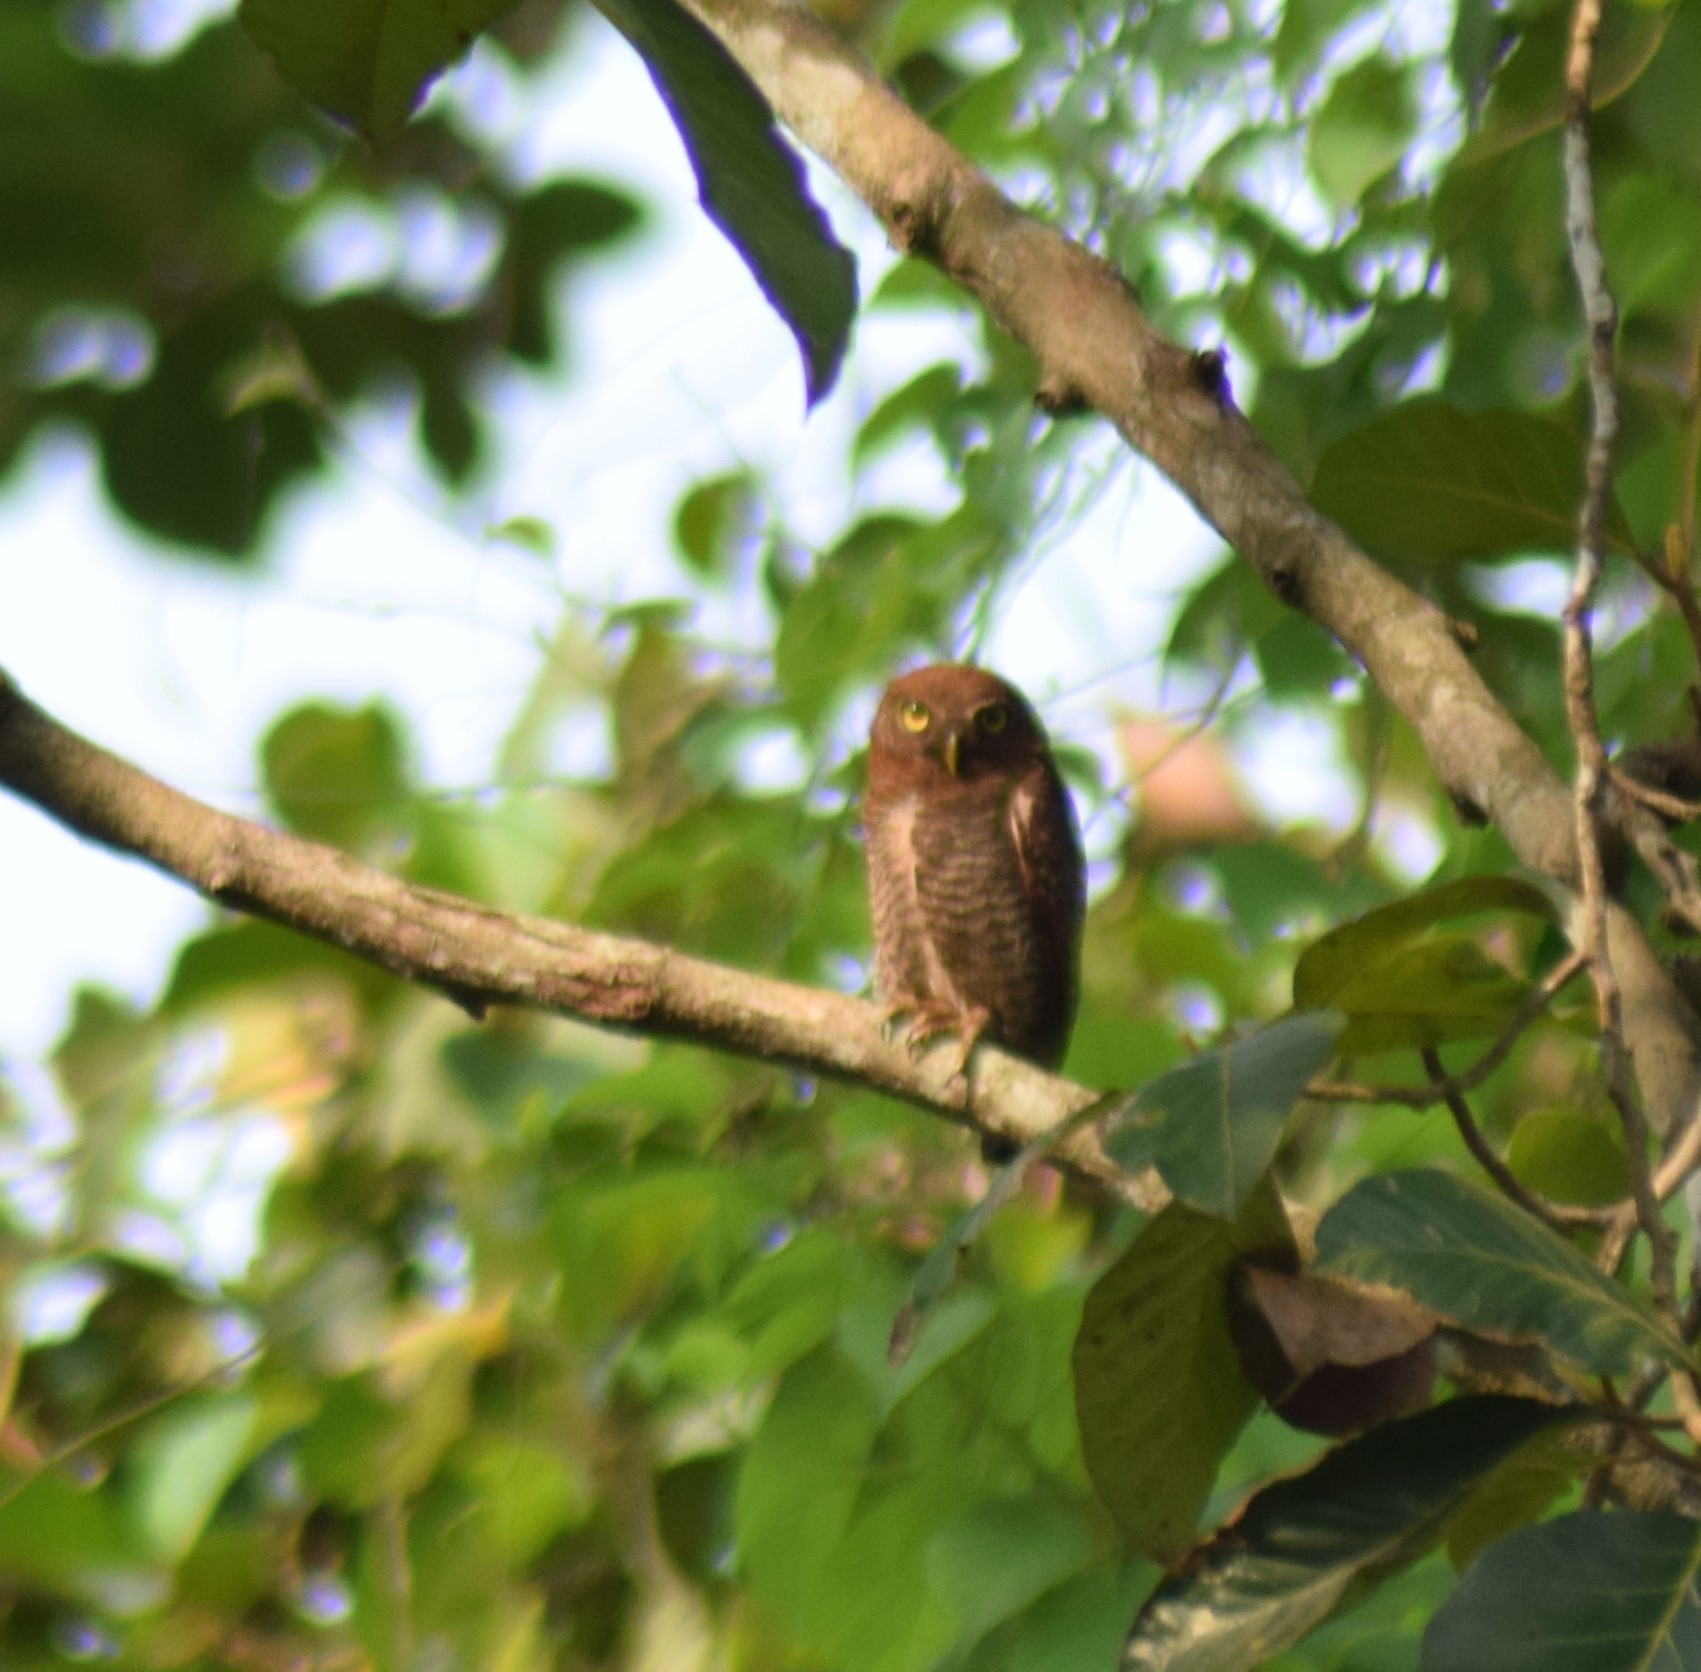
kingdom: Animalia
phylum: Chordata
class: Aves
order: Strigiformes
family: Strigidae
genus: Glaucidium
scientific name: Glaucidium radiatum
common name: Jungle owlet
